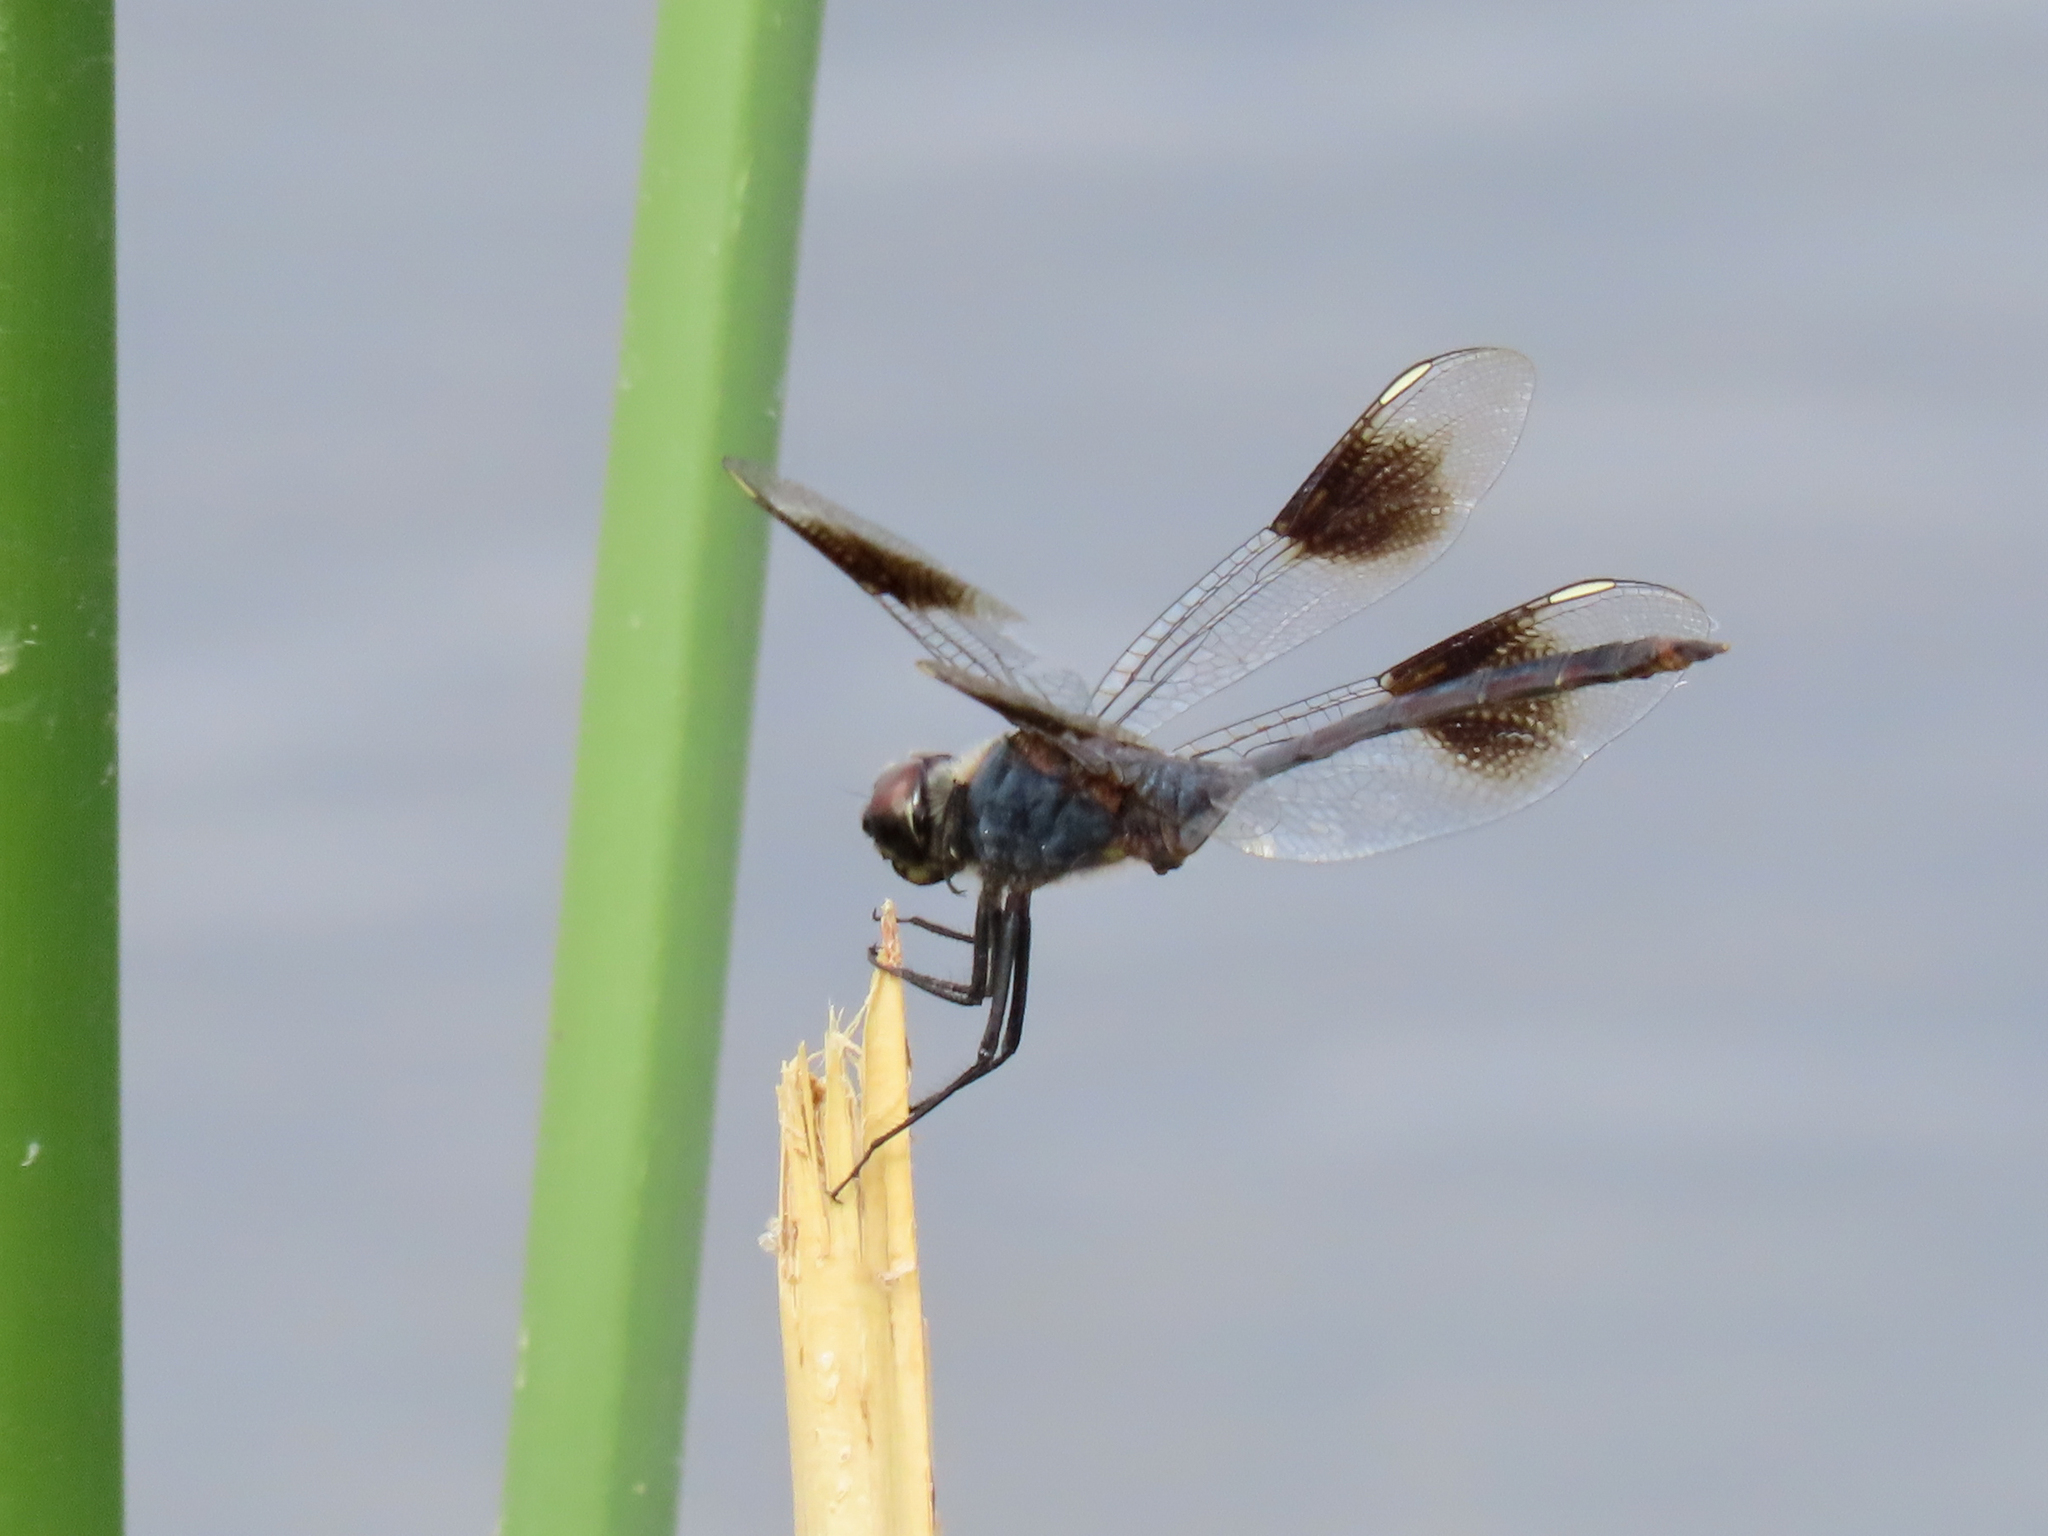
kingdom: Animalia
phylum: Arthropoda
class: Insecta
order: Odonata
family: Libellulidae
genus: Brachymesia
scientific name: Brachymesia gravida
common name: Four-spotted pennant
